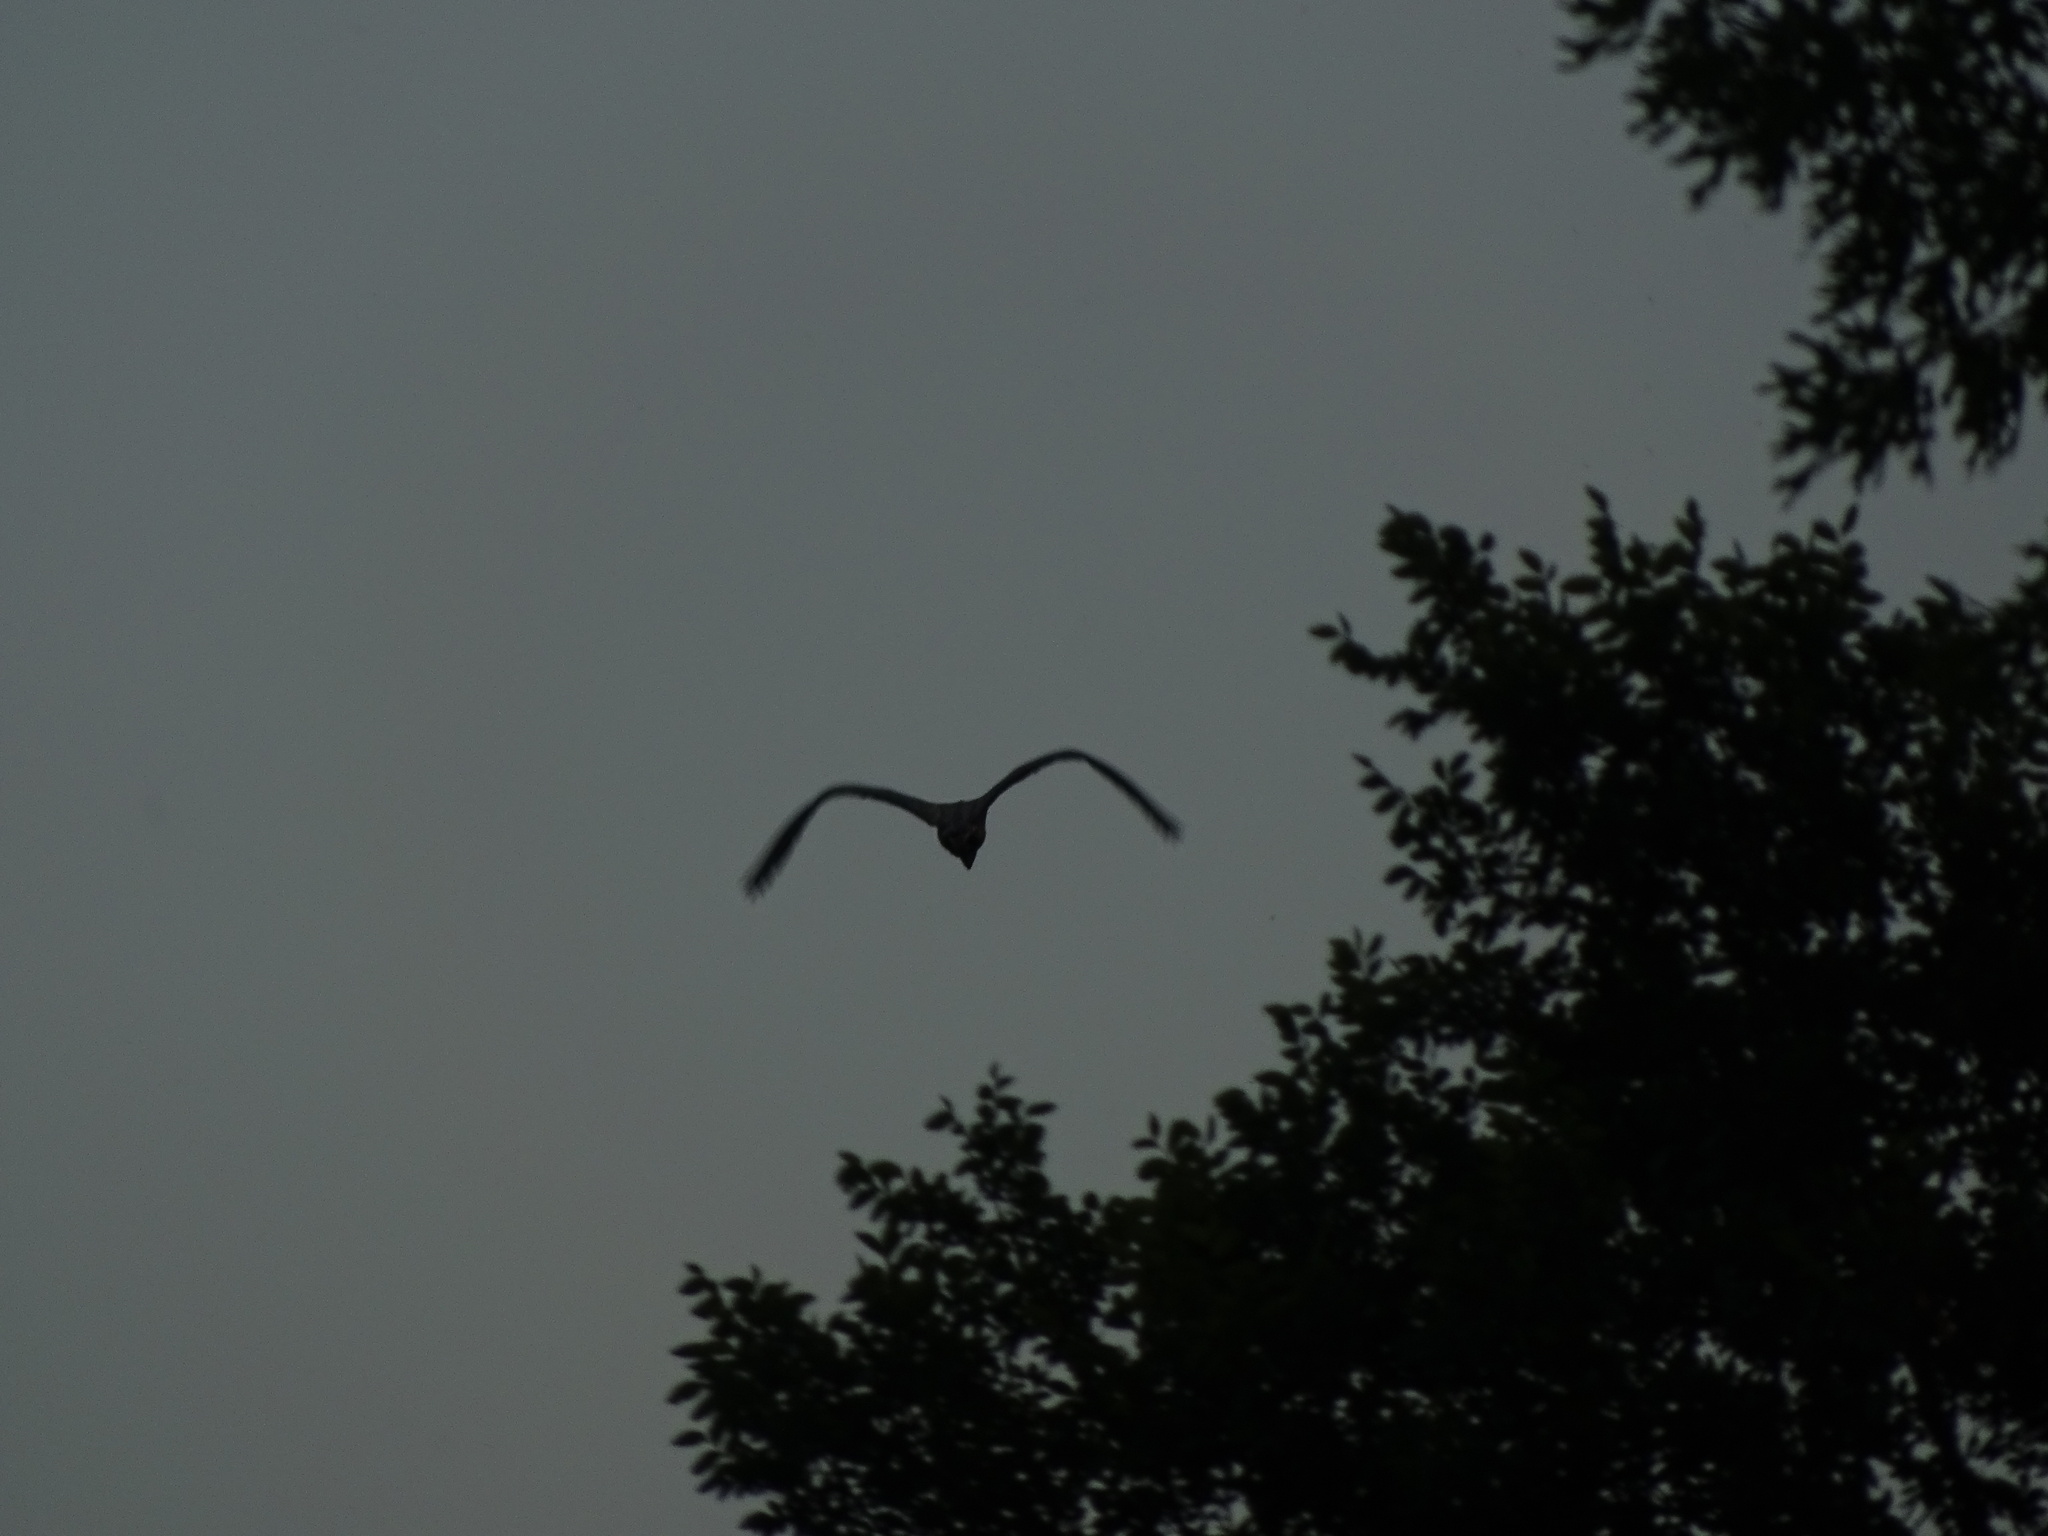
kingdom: Animalia
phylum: Chordata
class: Aves
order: Pelecaniformes
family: Ardeidae
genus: Ardea
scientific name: Ardea herodias
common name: Great blue heron
